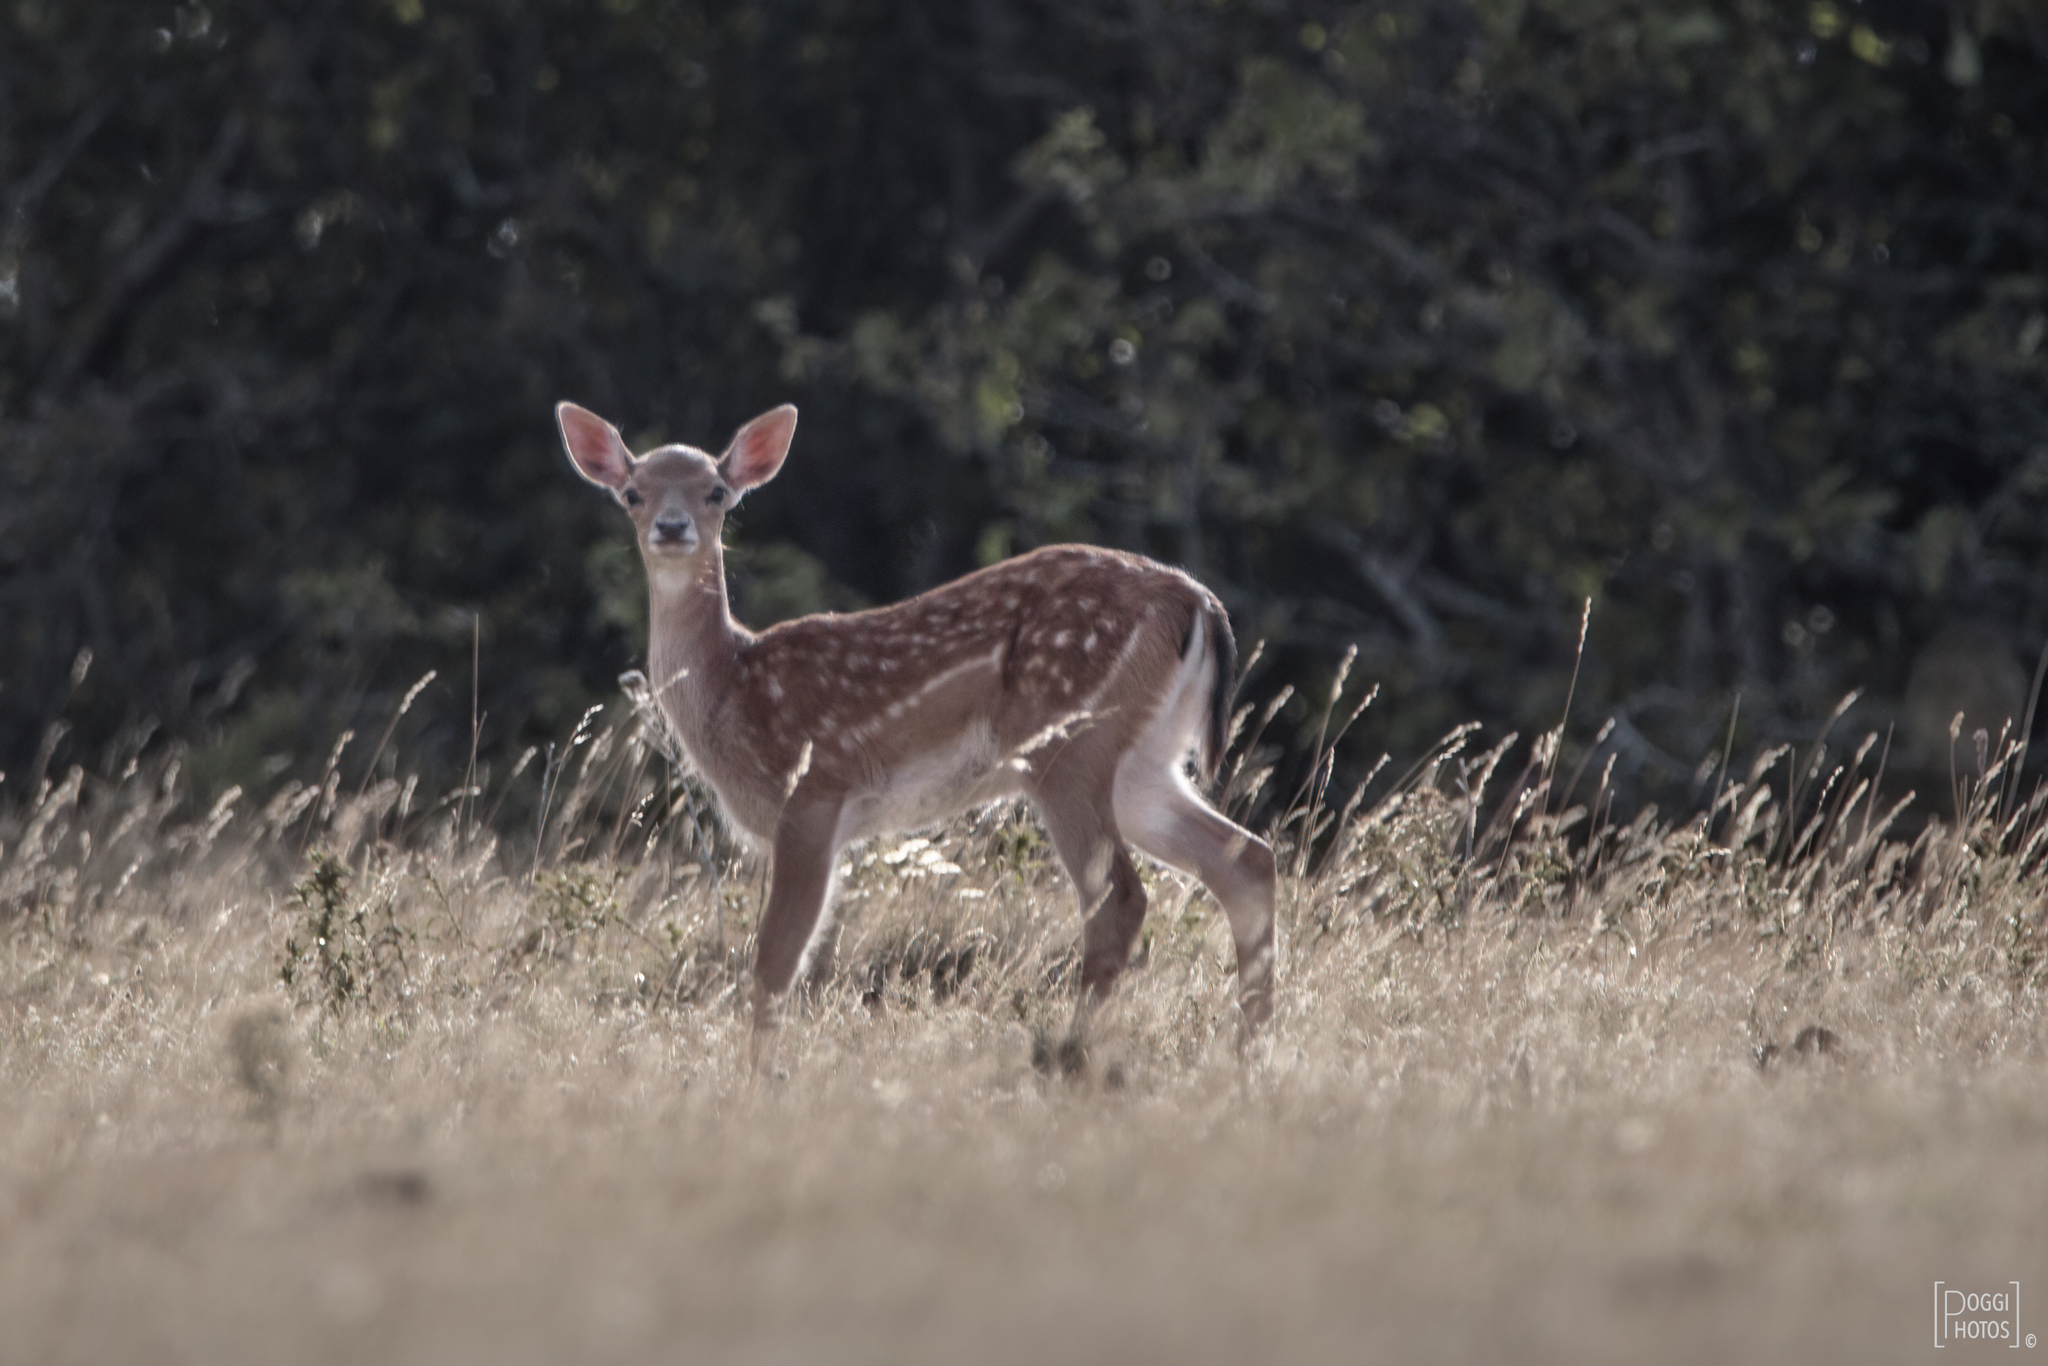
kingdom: Animalia
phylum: Chordata
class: Mammalia
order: Artiodactyla
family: Cervidae
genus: Dama
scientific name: Dama dama
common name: Fallow deer
